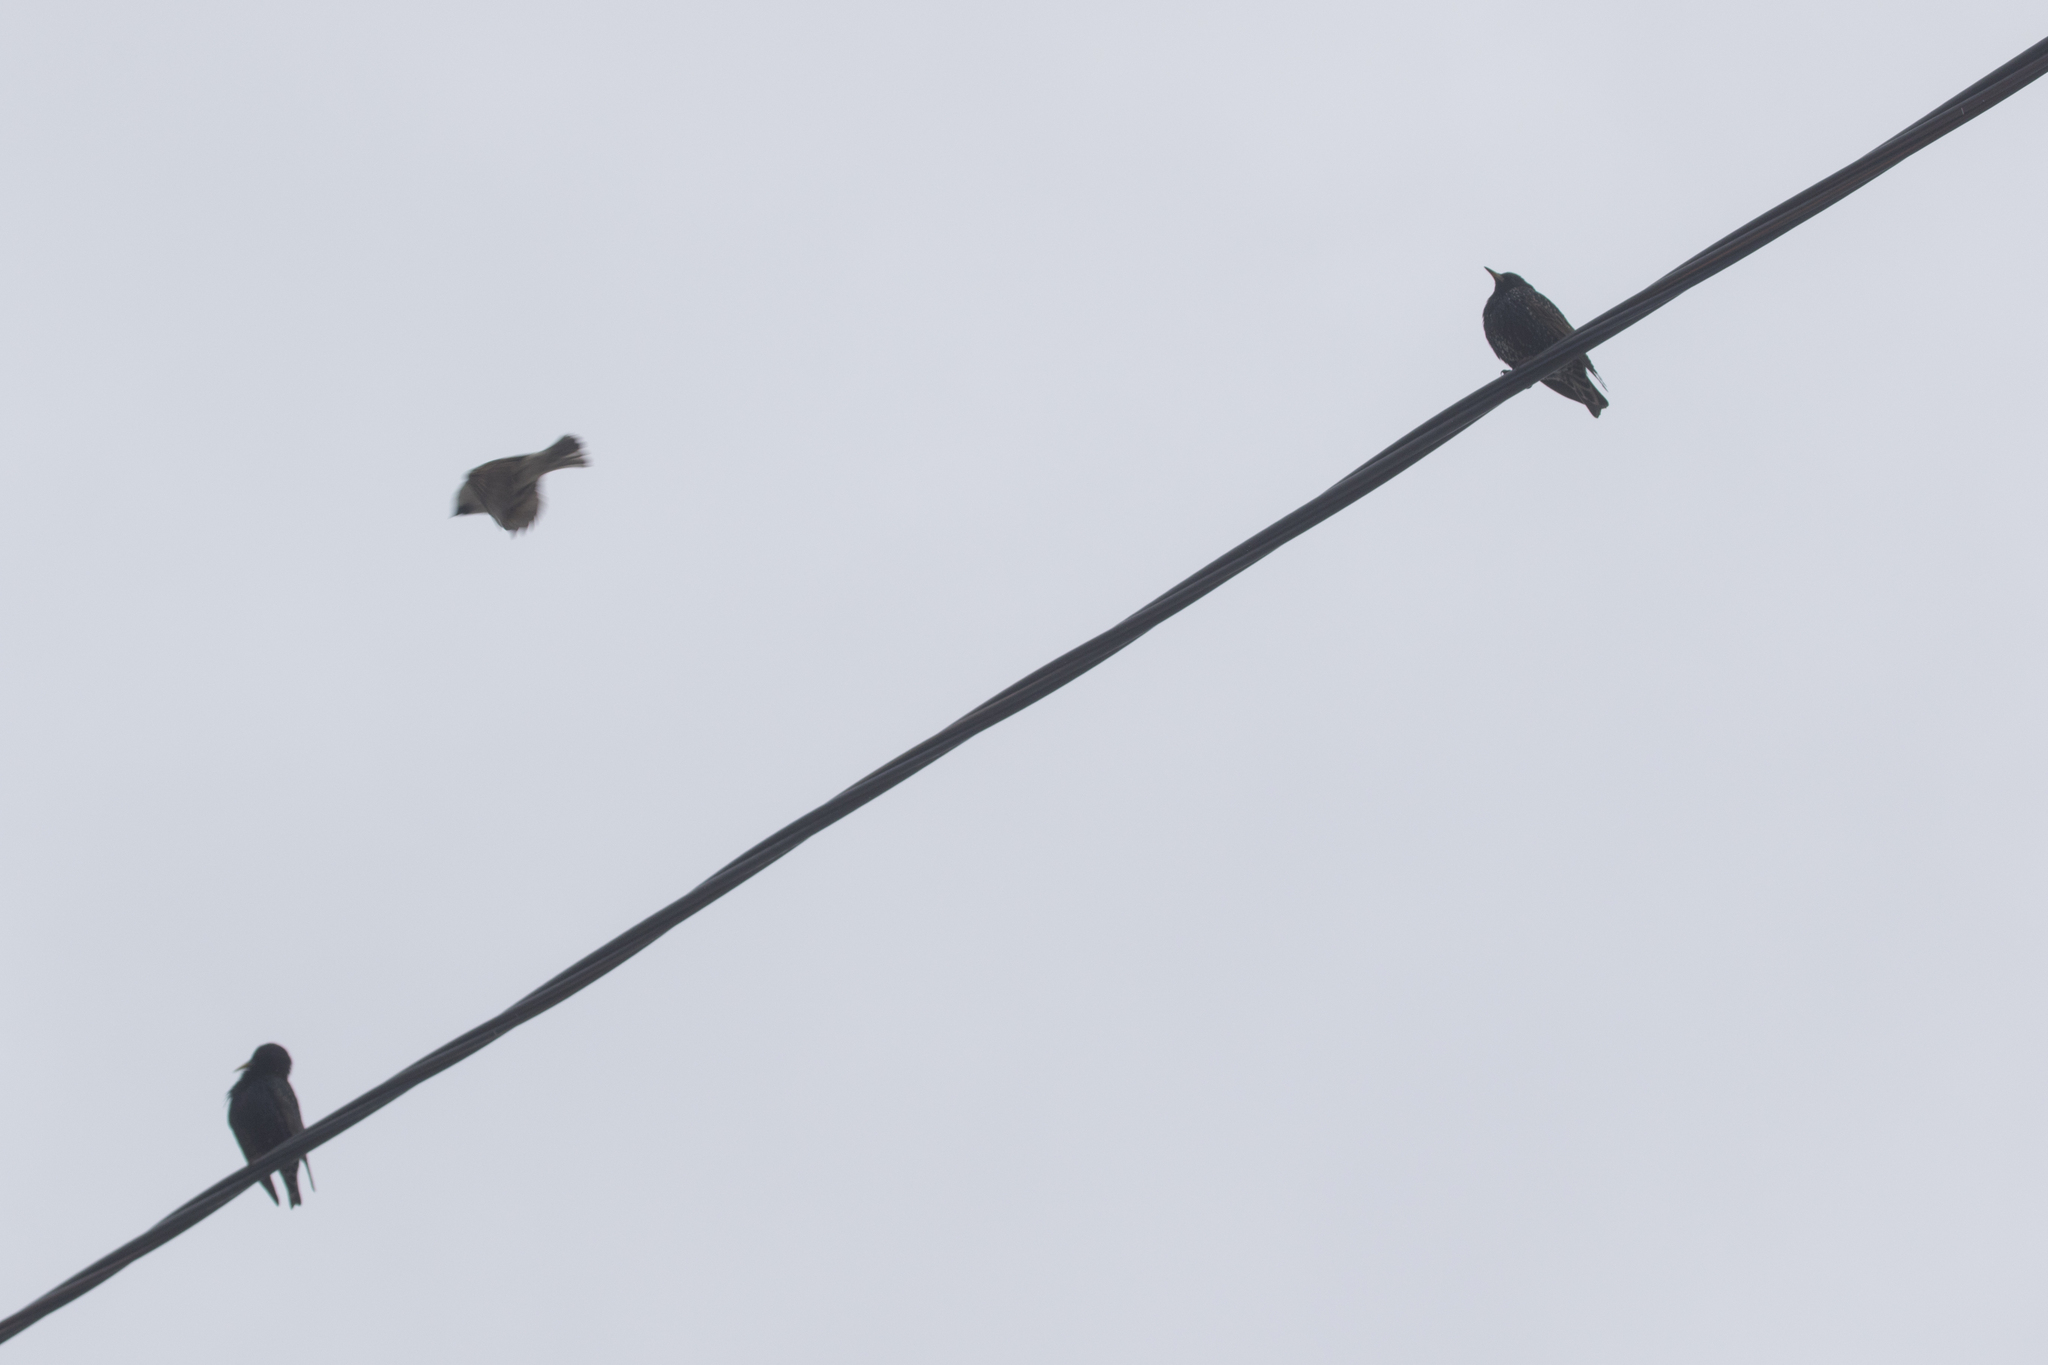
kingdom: Animalia
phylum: Chordata
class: Aves
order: Passeriformes
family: Sturnidae
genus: Sturnus
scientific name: Sturnus vulgaris
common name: Common starling
